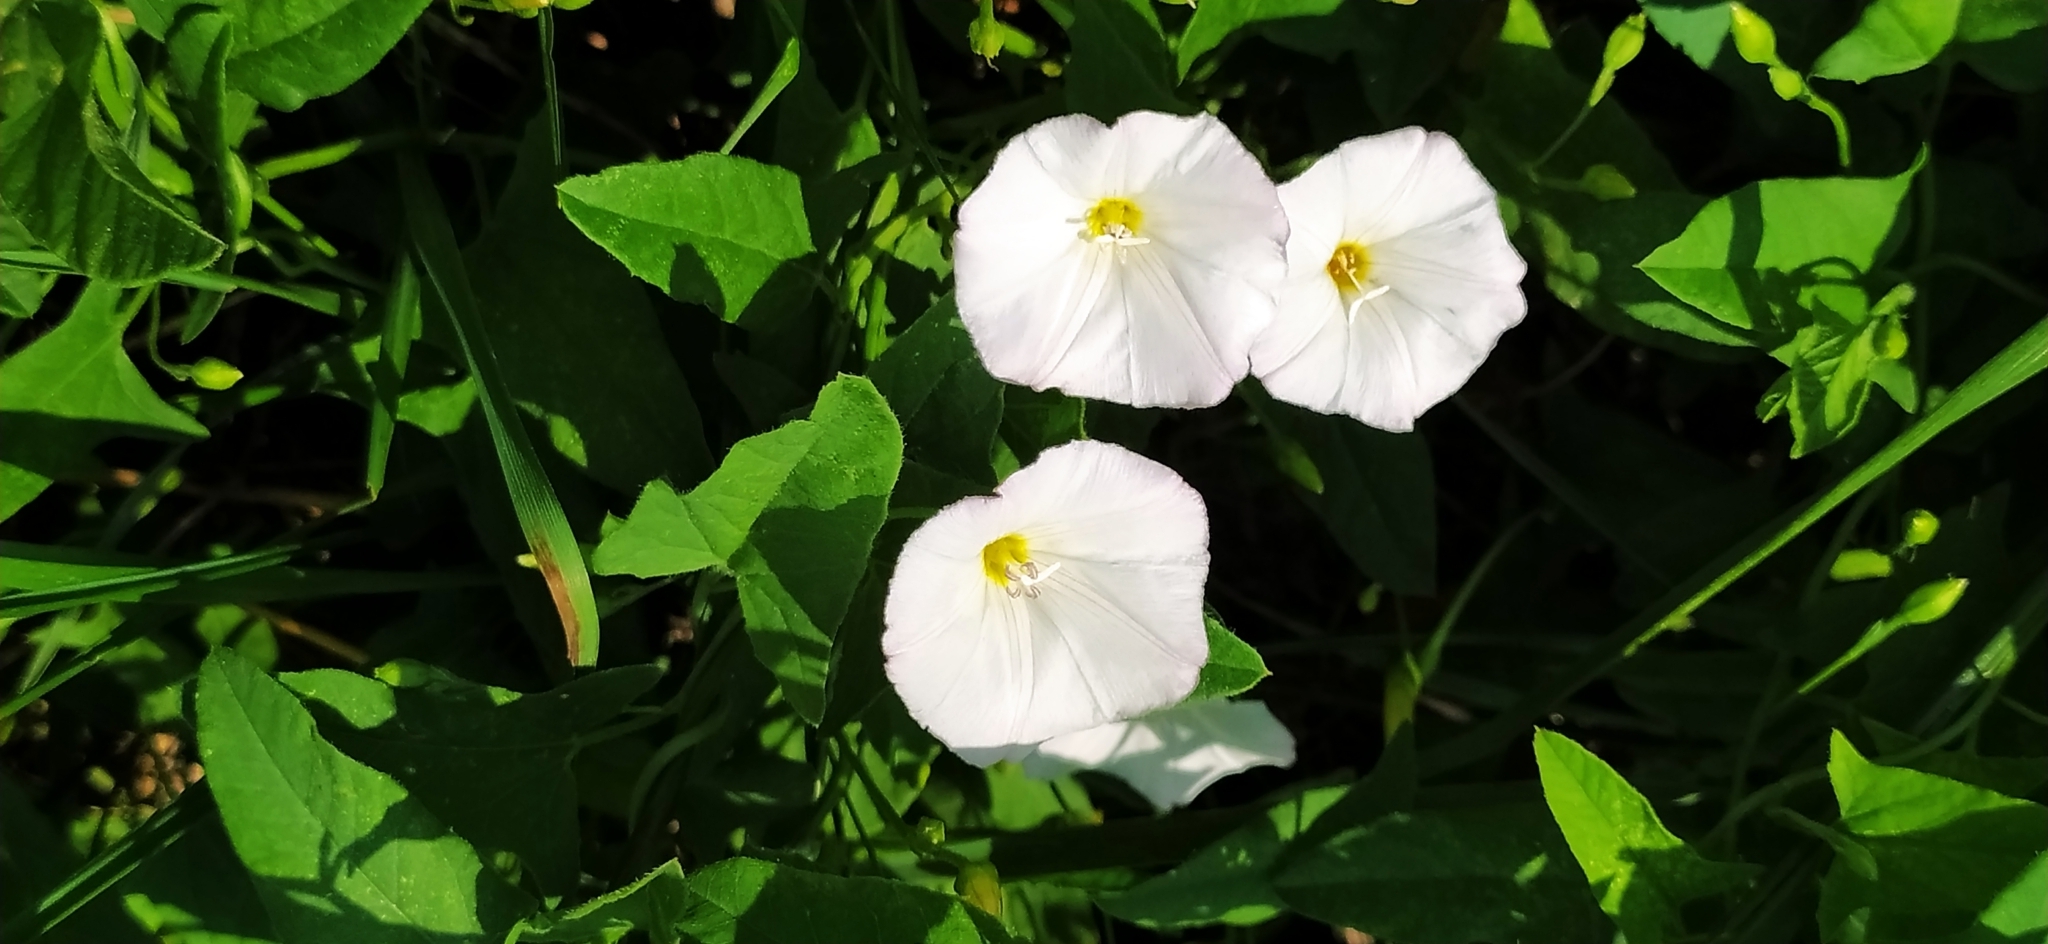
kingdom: Plantae
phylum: Tracheophyta
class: Magnoliopsida
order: Solanales
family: Convolvulaceae
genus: Convolvulus
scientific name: Convolvulus arvensis
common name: Field bindweed
